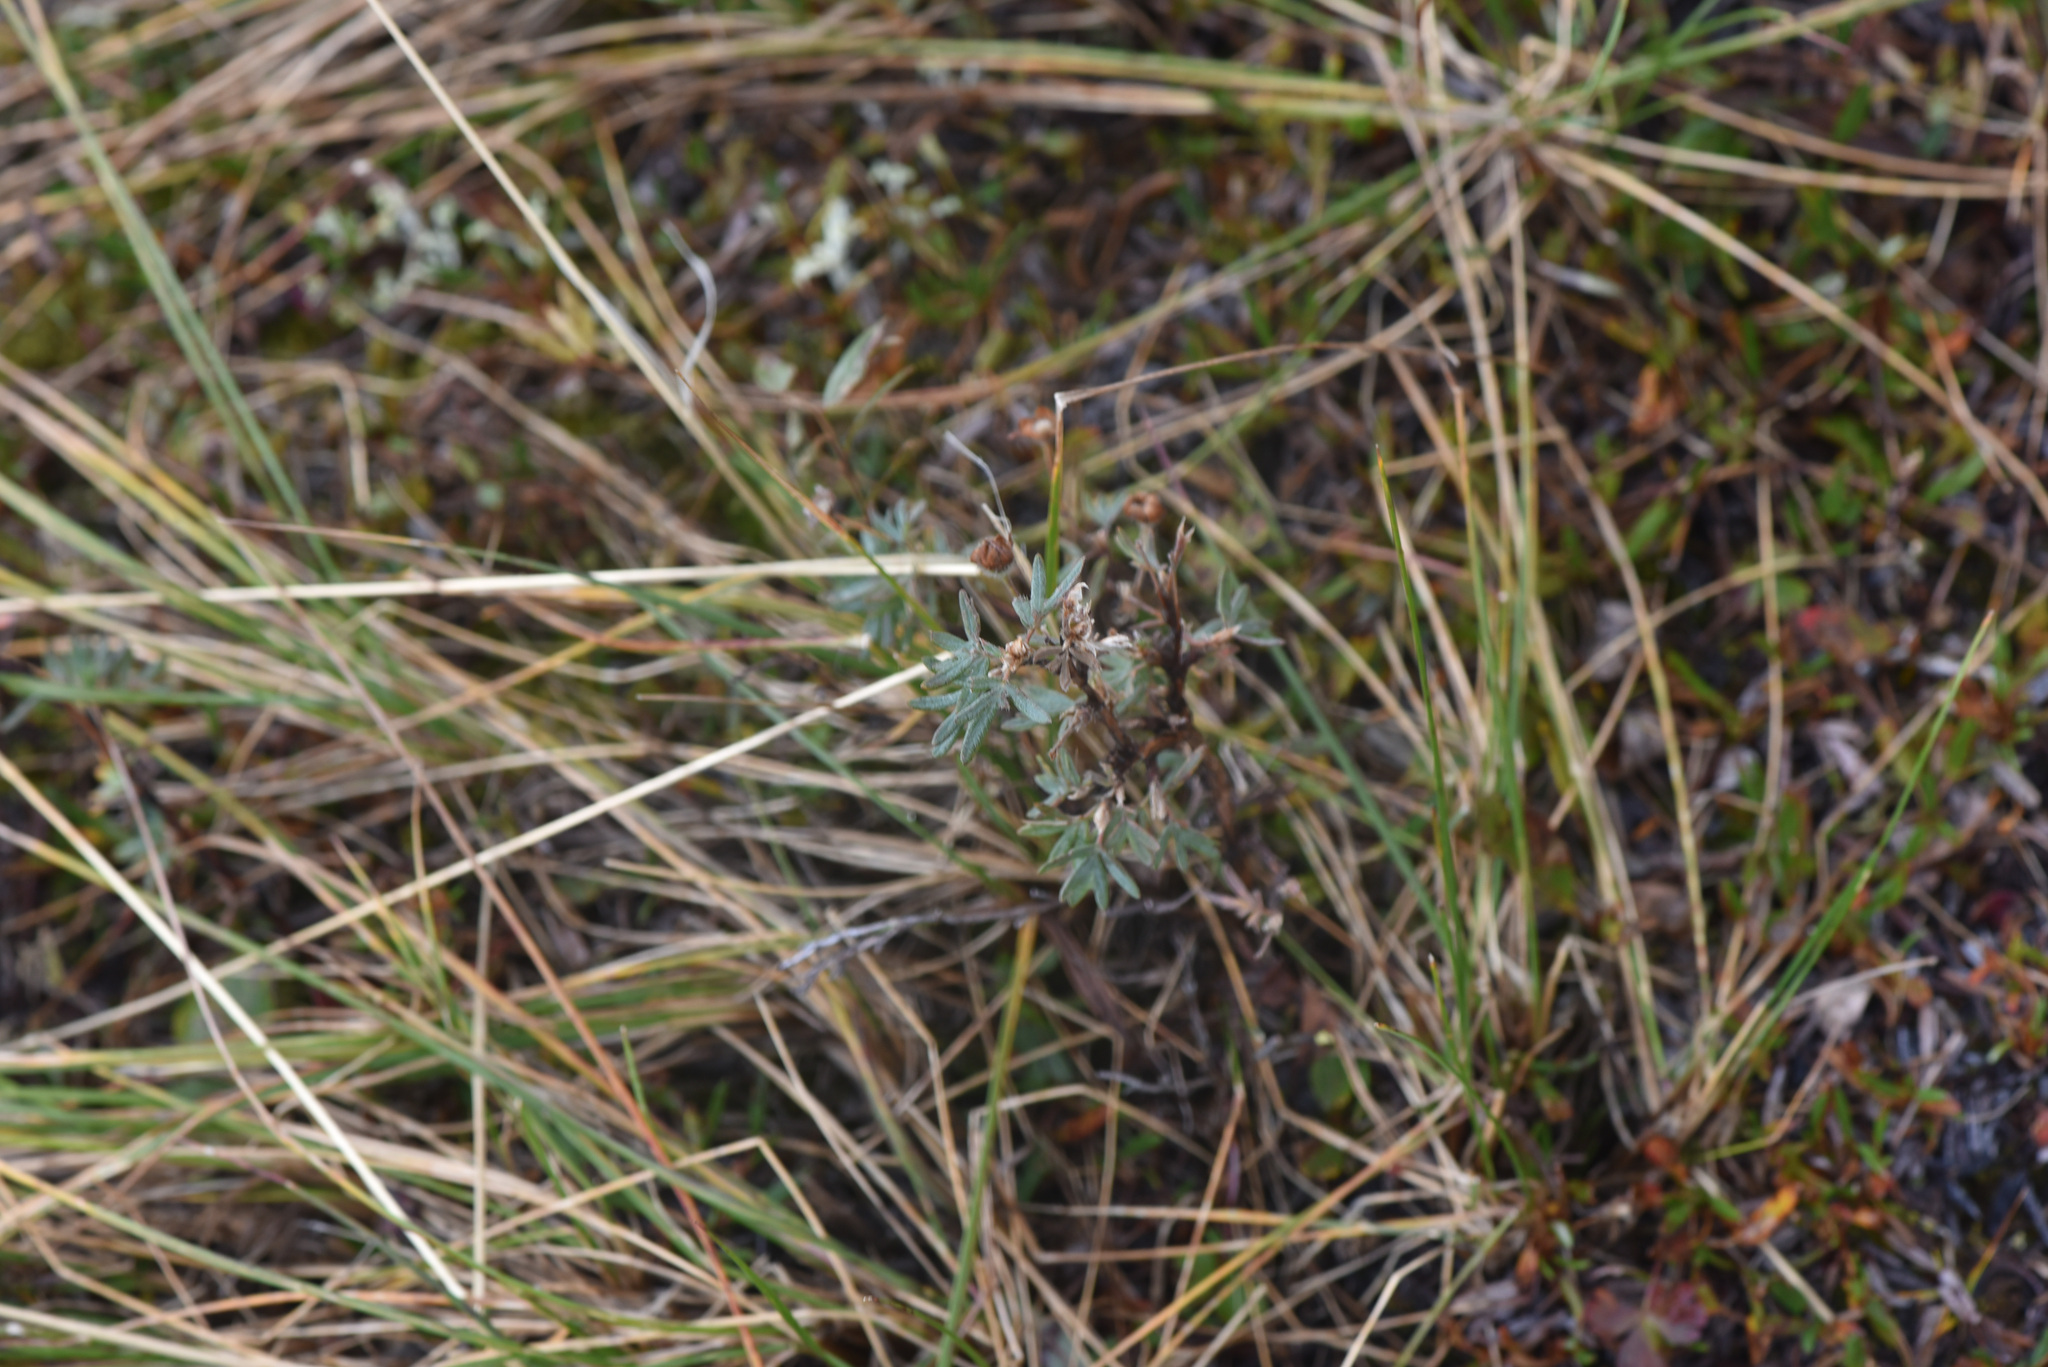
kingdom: Plantae
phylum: Tracheophyta
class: Magnoliopsida
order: Rosales
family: Rosaceae
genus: Dasiphora
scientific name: Dasiphora fruticosa
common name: Shrubby cinquefoil
